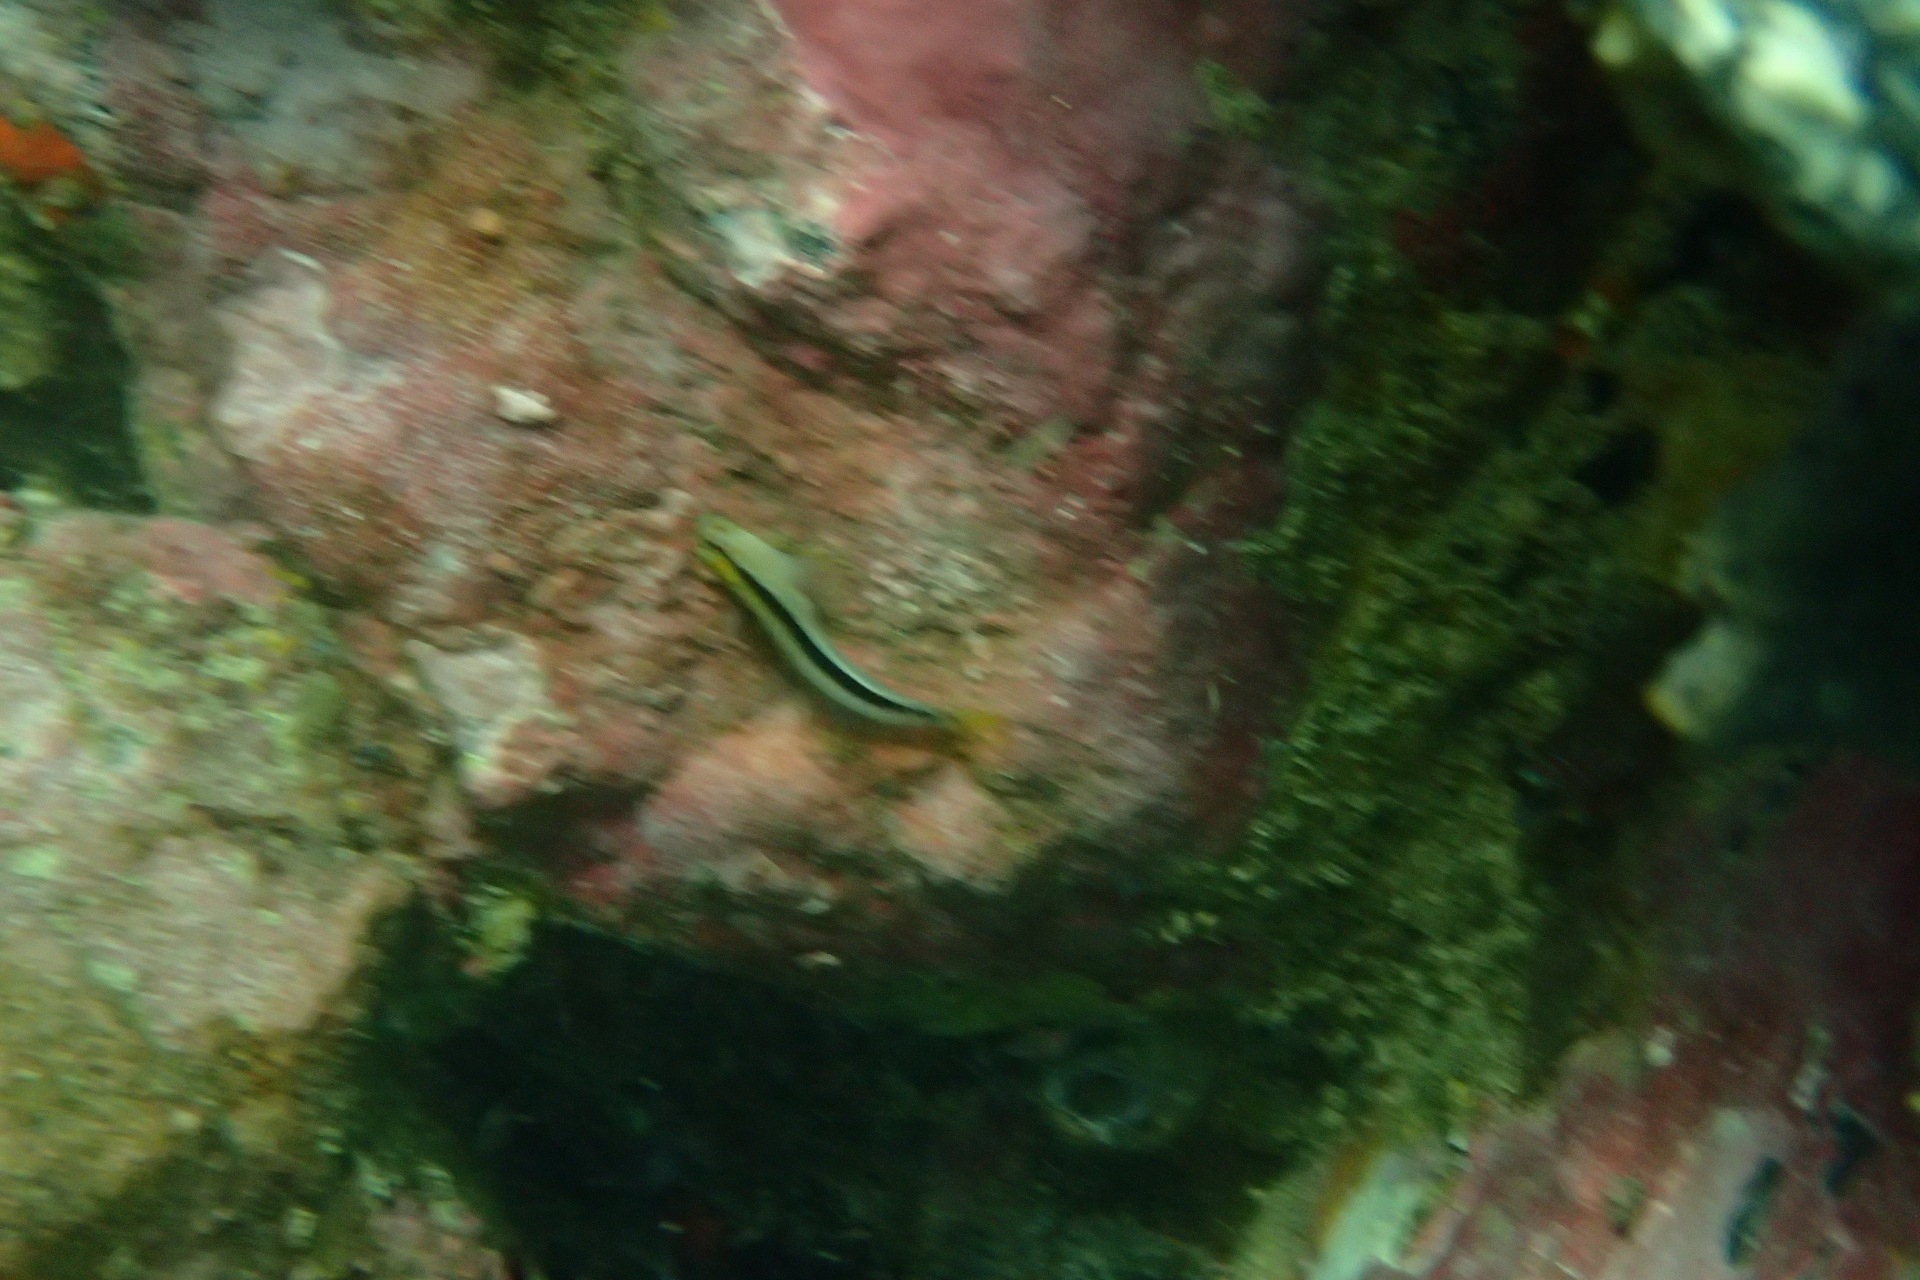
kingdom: Animalia
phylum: Chordata
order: Perciformes
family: Blenniidae
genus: Parablennius
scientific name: Parablennius laticlavius
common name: Crested blenny
